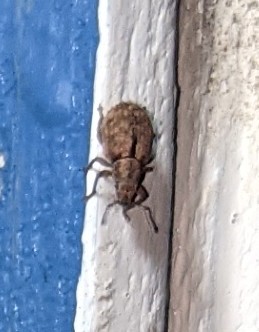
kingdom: Animalia
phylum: Arthropoda
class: Insecta
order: Coleoptera
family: Curculionidae
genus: Strophosoma
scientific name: Strophosoma melanogrammum
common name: Weevil
